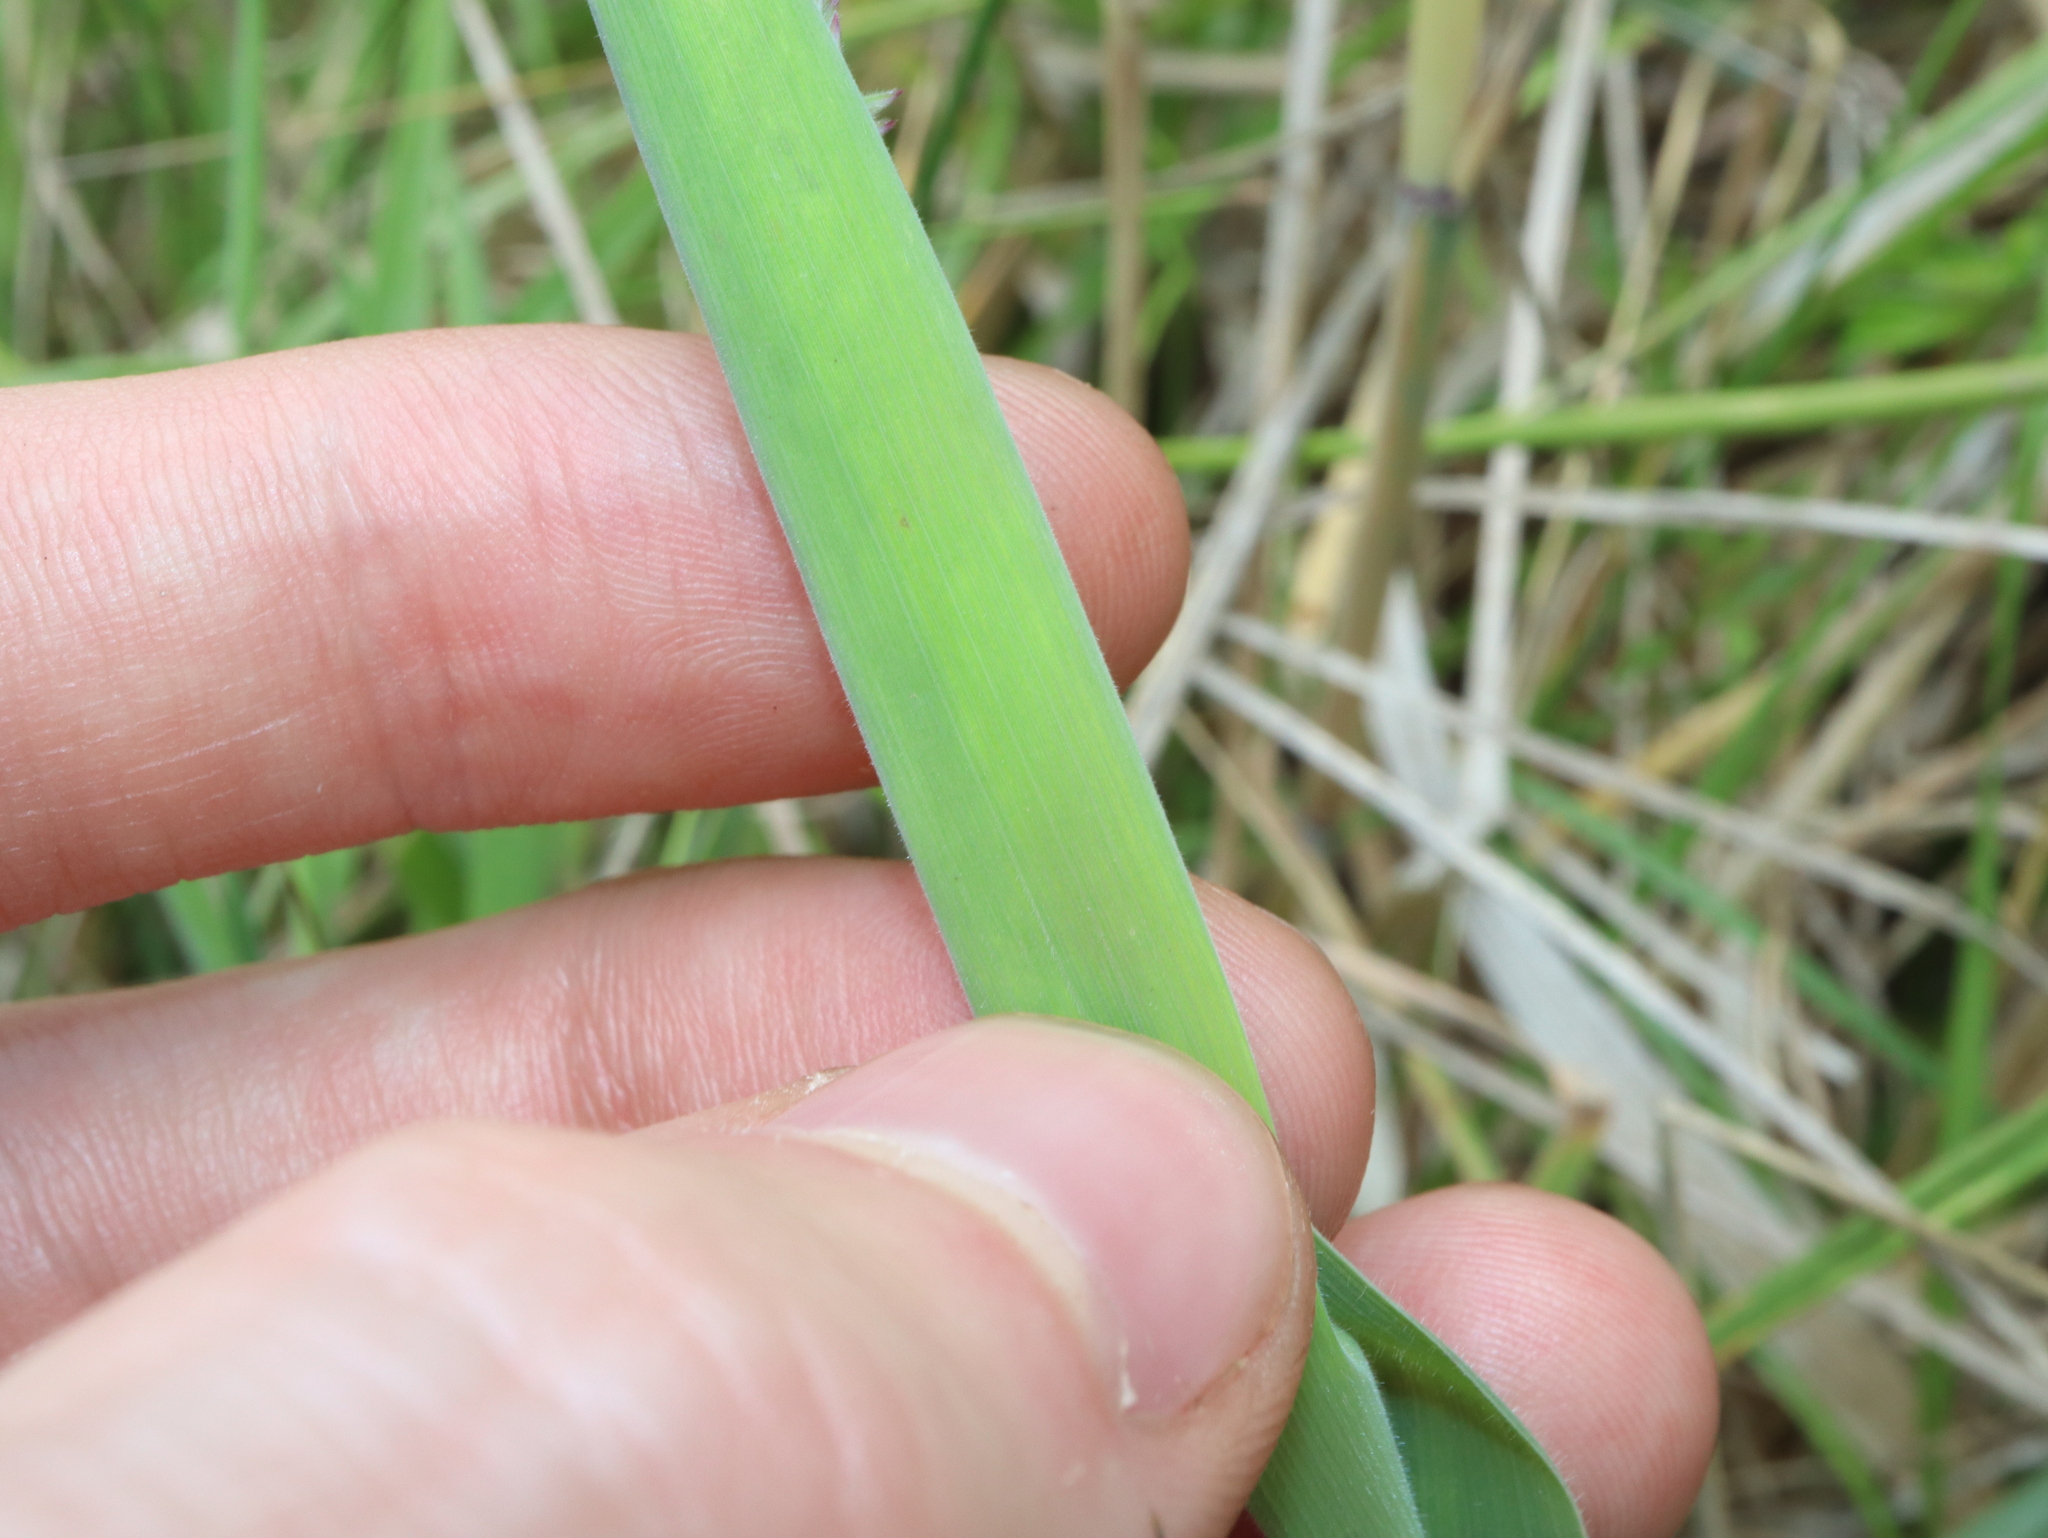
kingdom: Plantae
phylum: Tracheophyta
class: Liliopsida
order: Poales
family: Poaceae
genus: Holcus
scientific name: Holcus lanatus
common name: Yorkshire-fog
